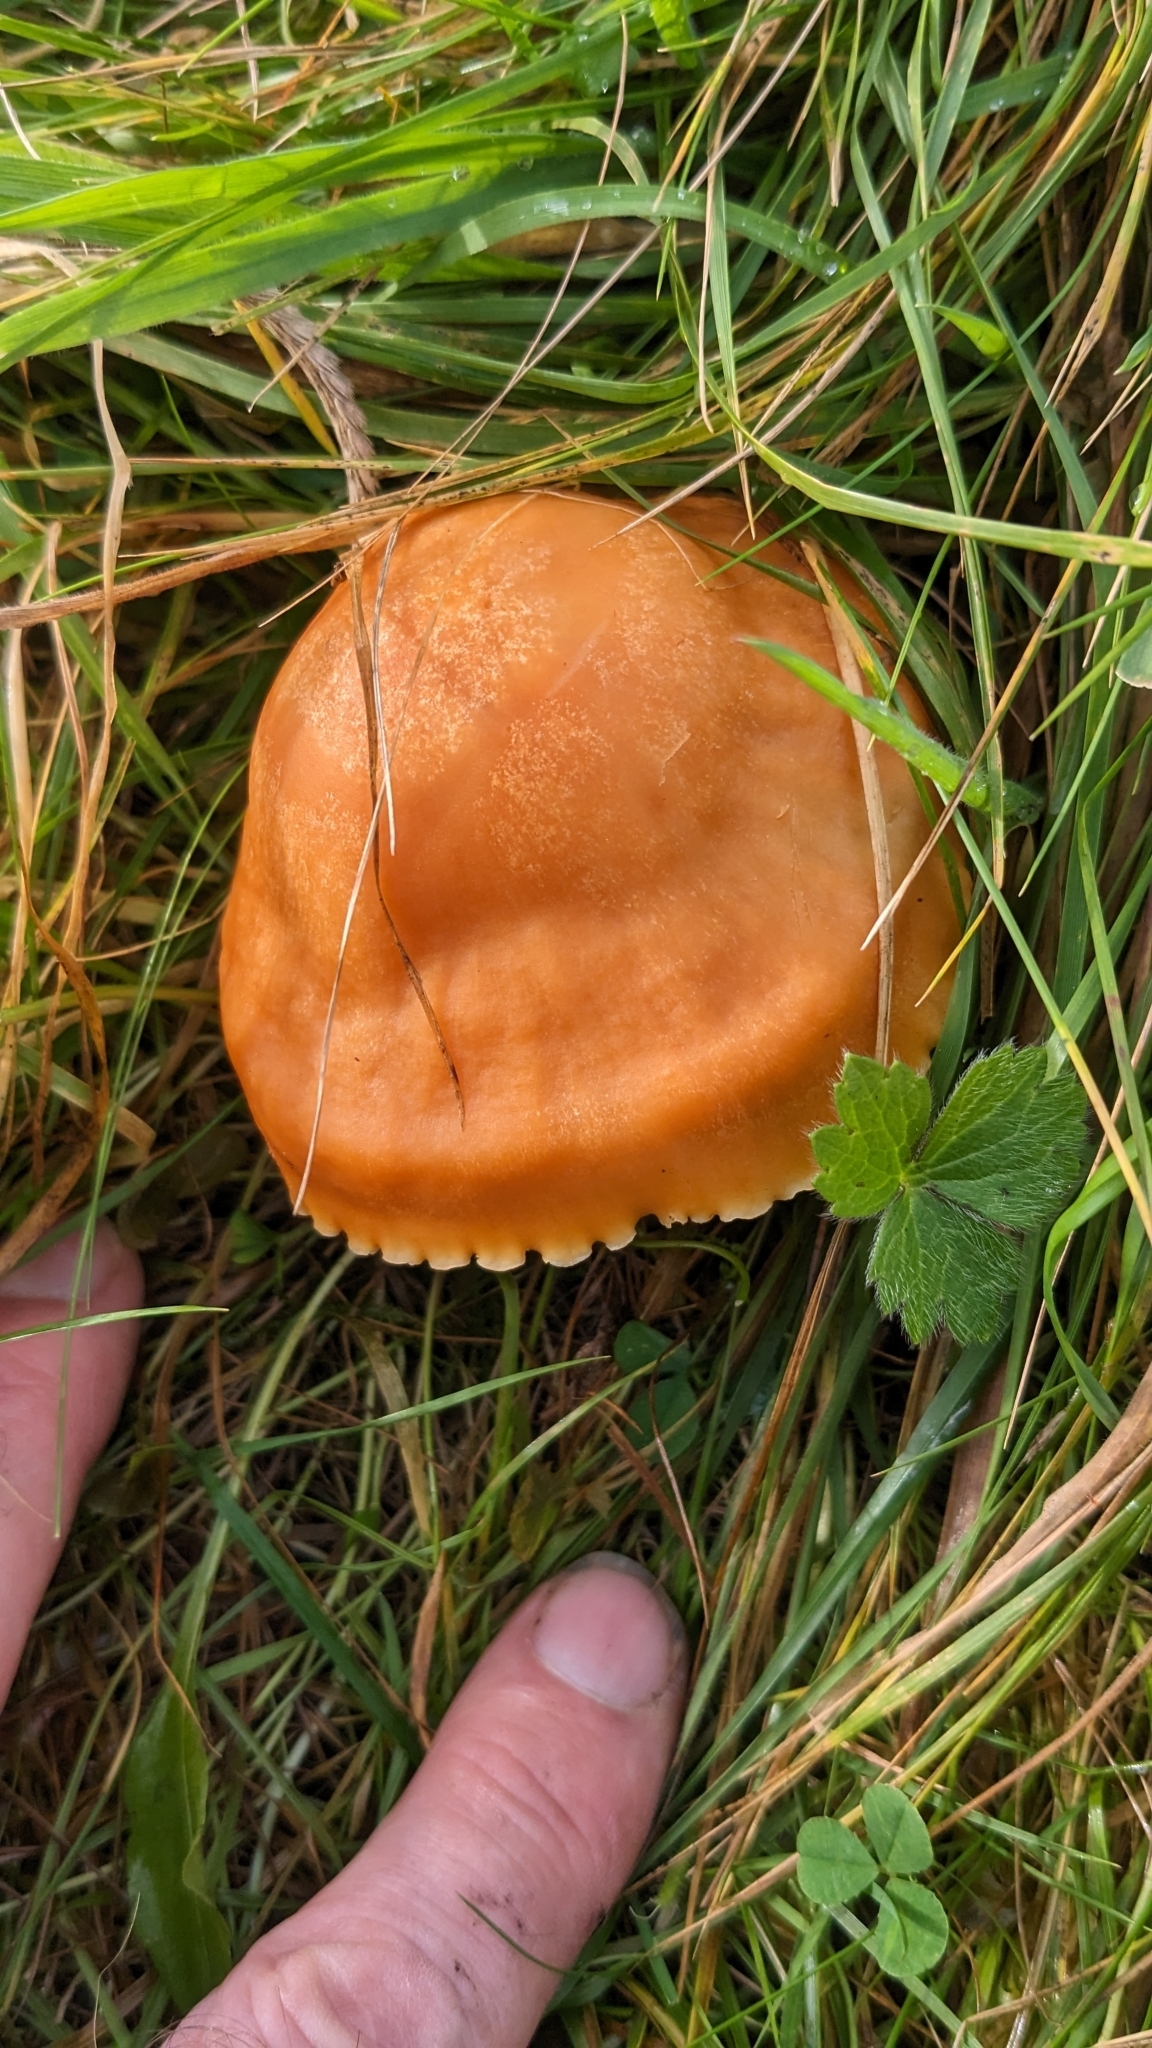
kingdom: Fungi
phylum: Basidiomycota
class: Agaricomycetes
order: Agaricales
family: Hygrophoraceae
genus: Cuphophyllus
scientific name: Cuphophyllus pratensis
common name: Meadow waxcap
